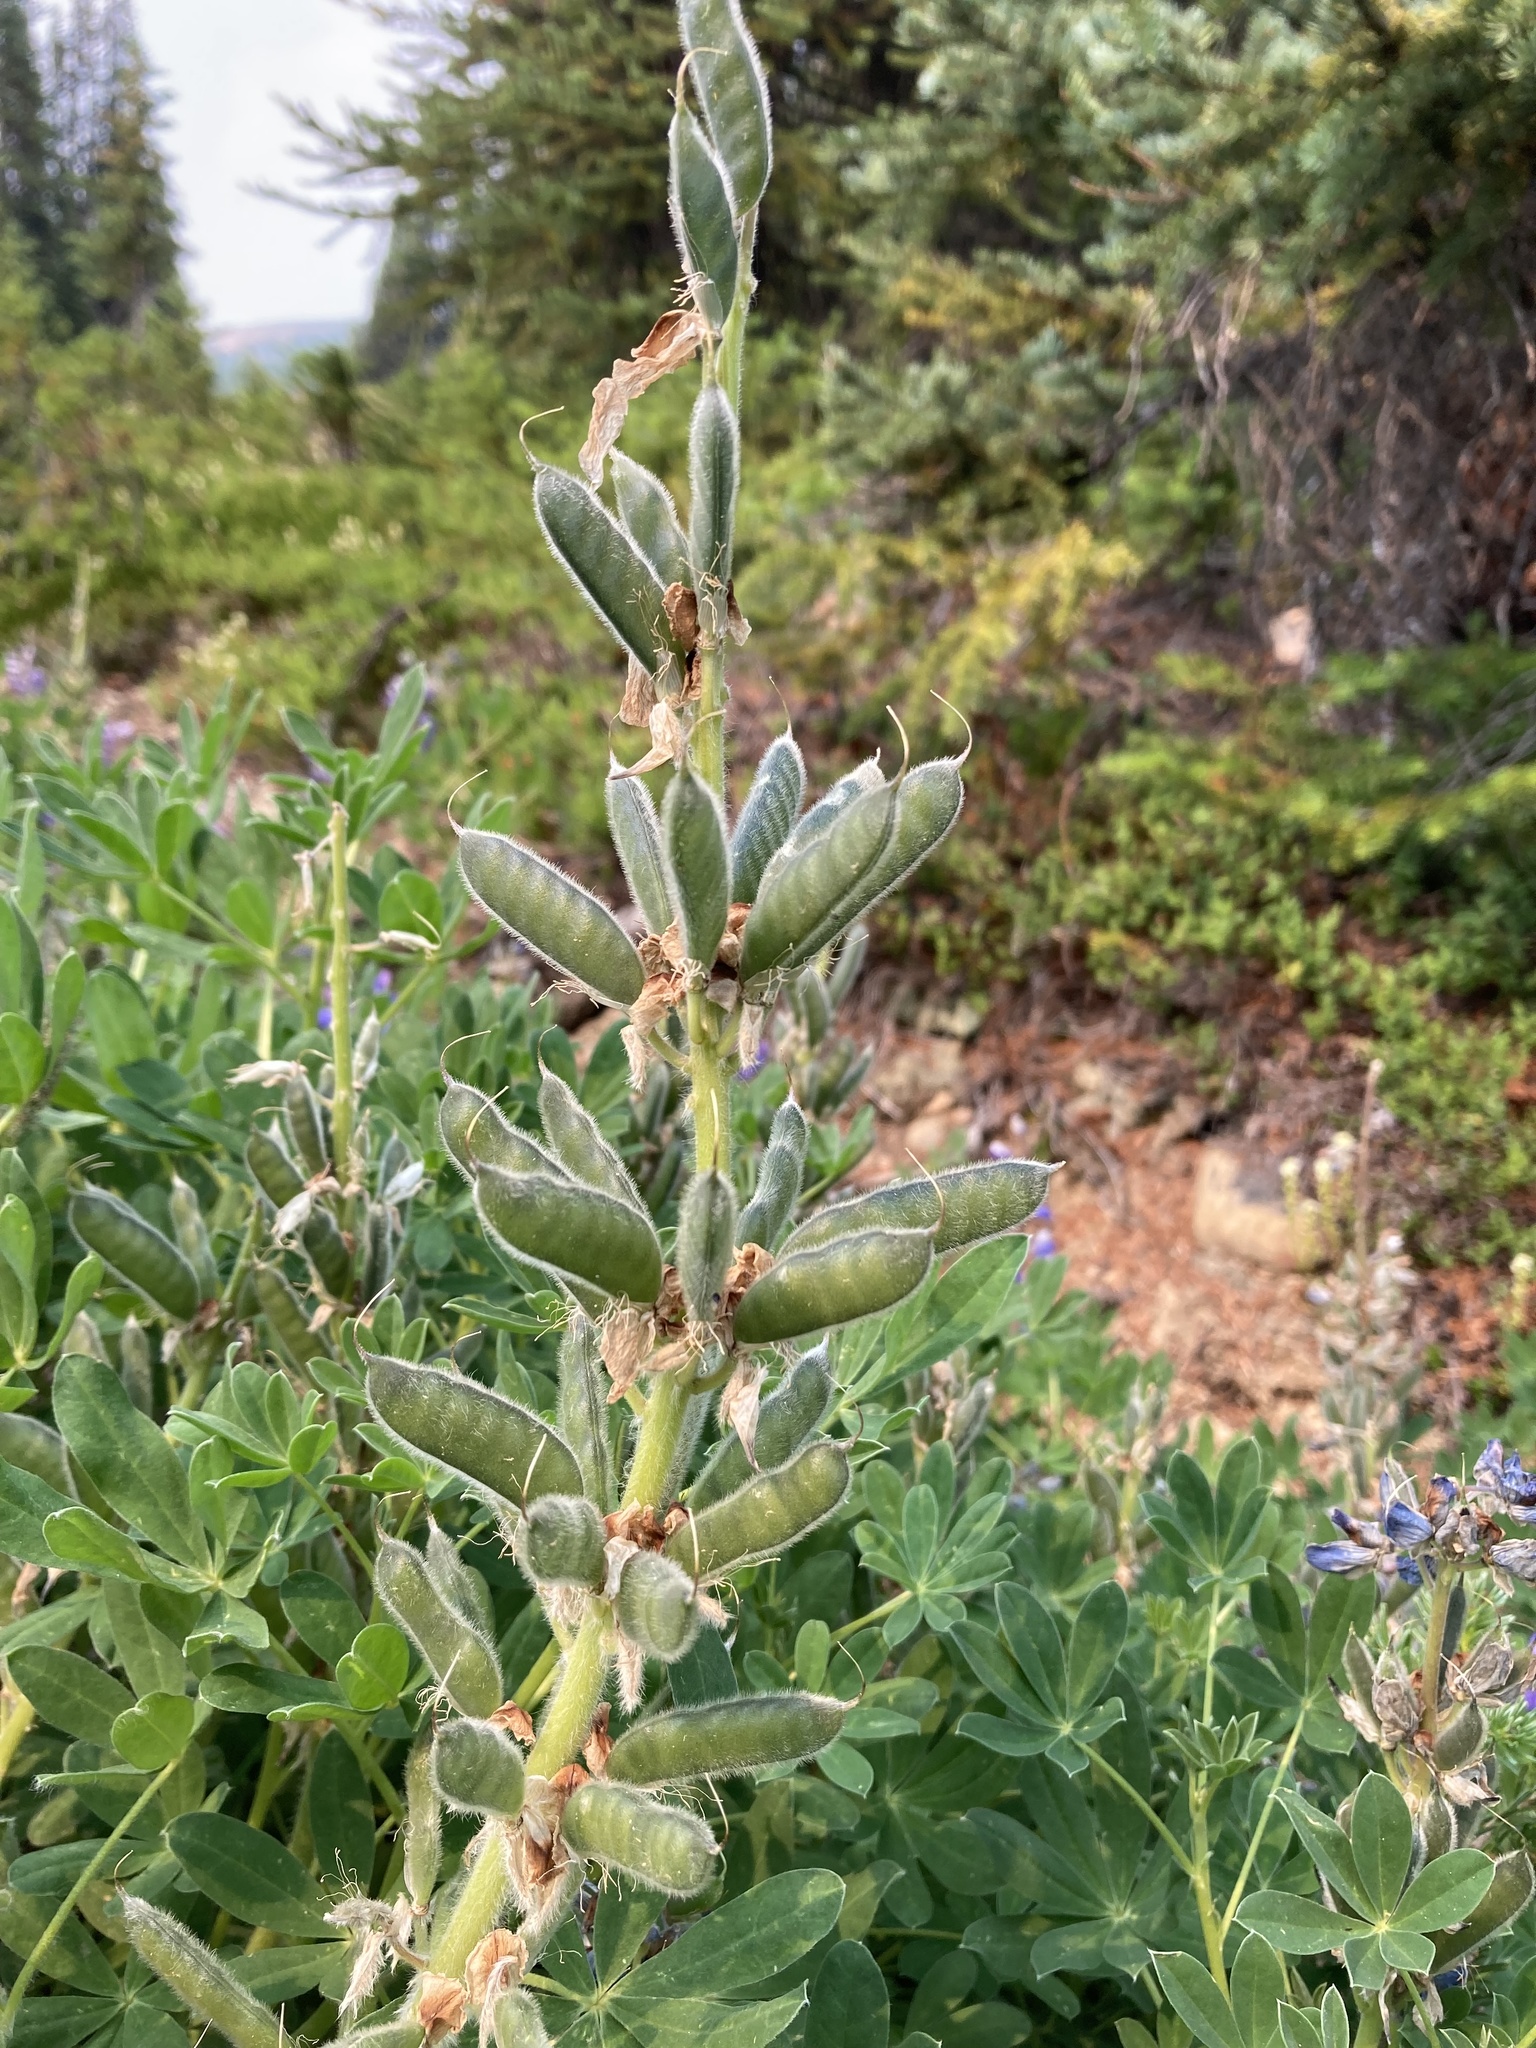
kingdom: Plantae
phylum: Tracheophyta
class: Magnoliopsida
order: Fabales
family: Fabaceae
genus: Lupinus
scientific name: Lupinus nootkatensis
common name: Nootka lupine
